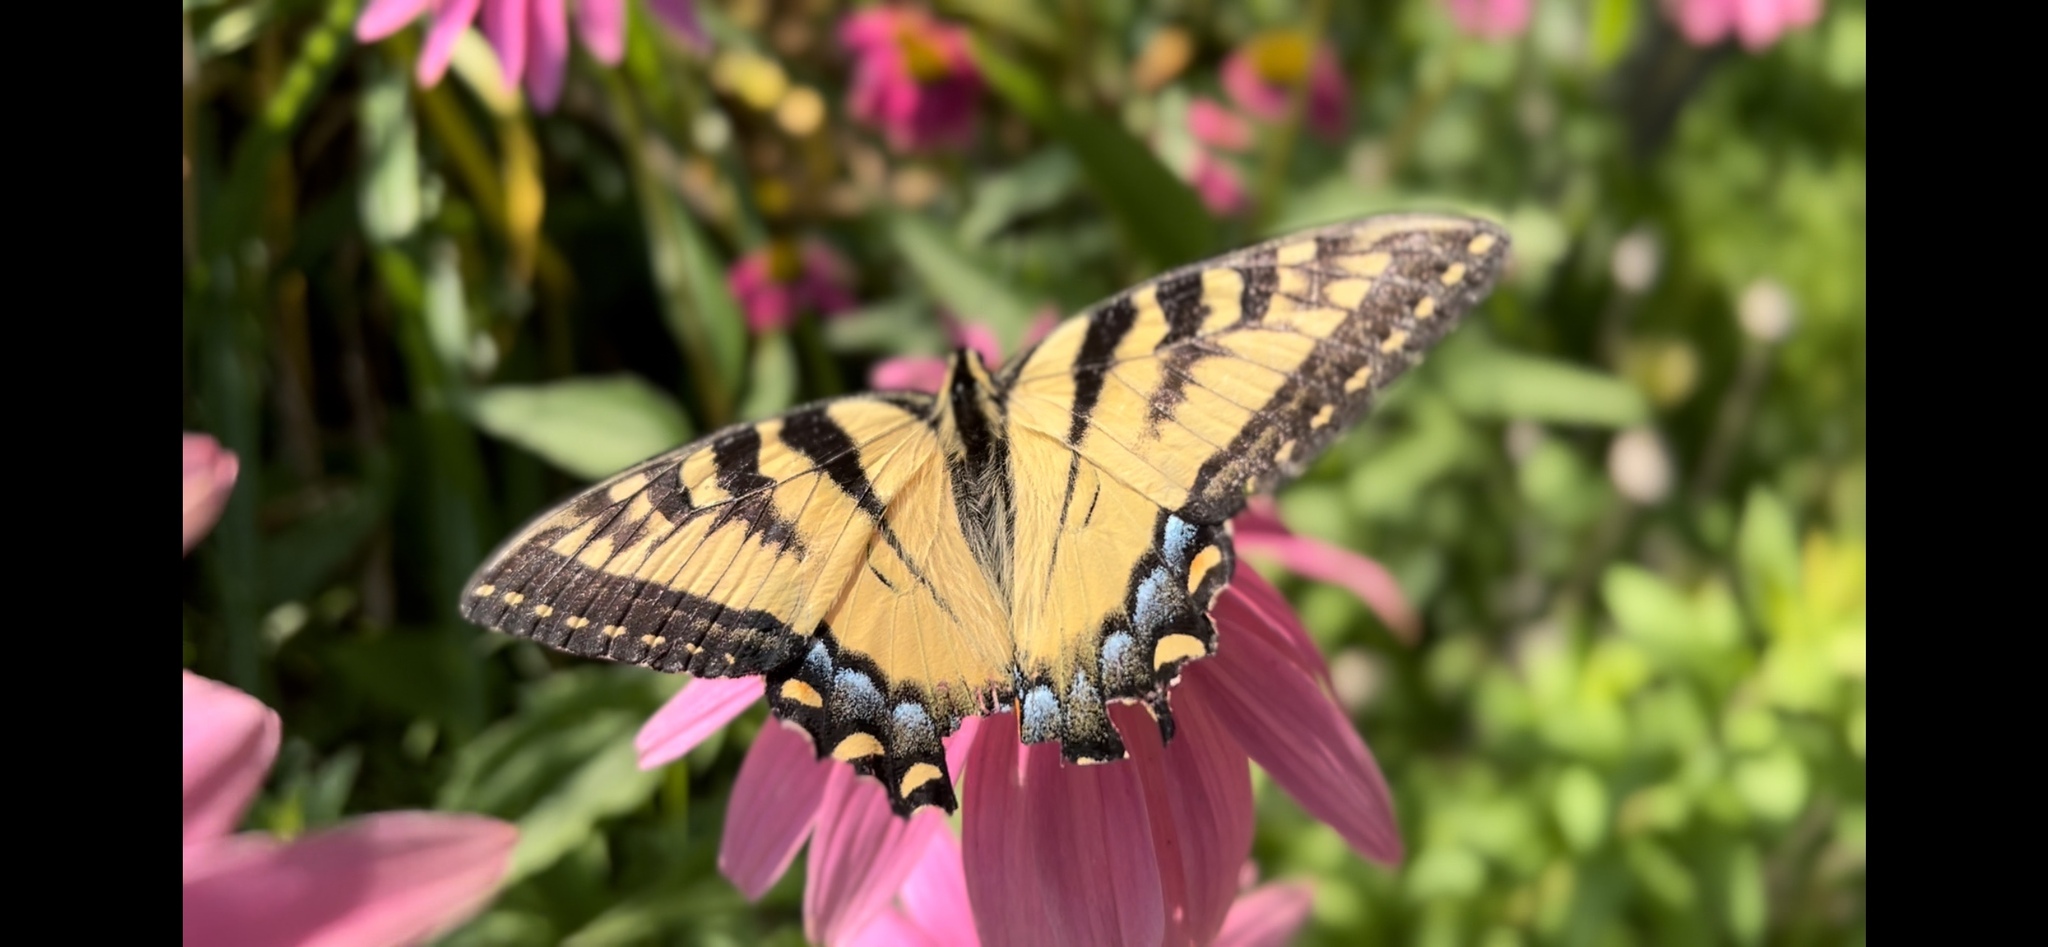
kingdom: Animalia
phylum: Arthropoda
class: Insecta
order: Lepidoptera
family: Papilionidae
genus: Papilio
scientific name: Papilio glaucus
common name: Tiger swallowtail
